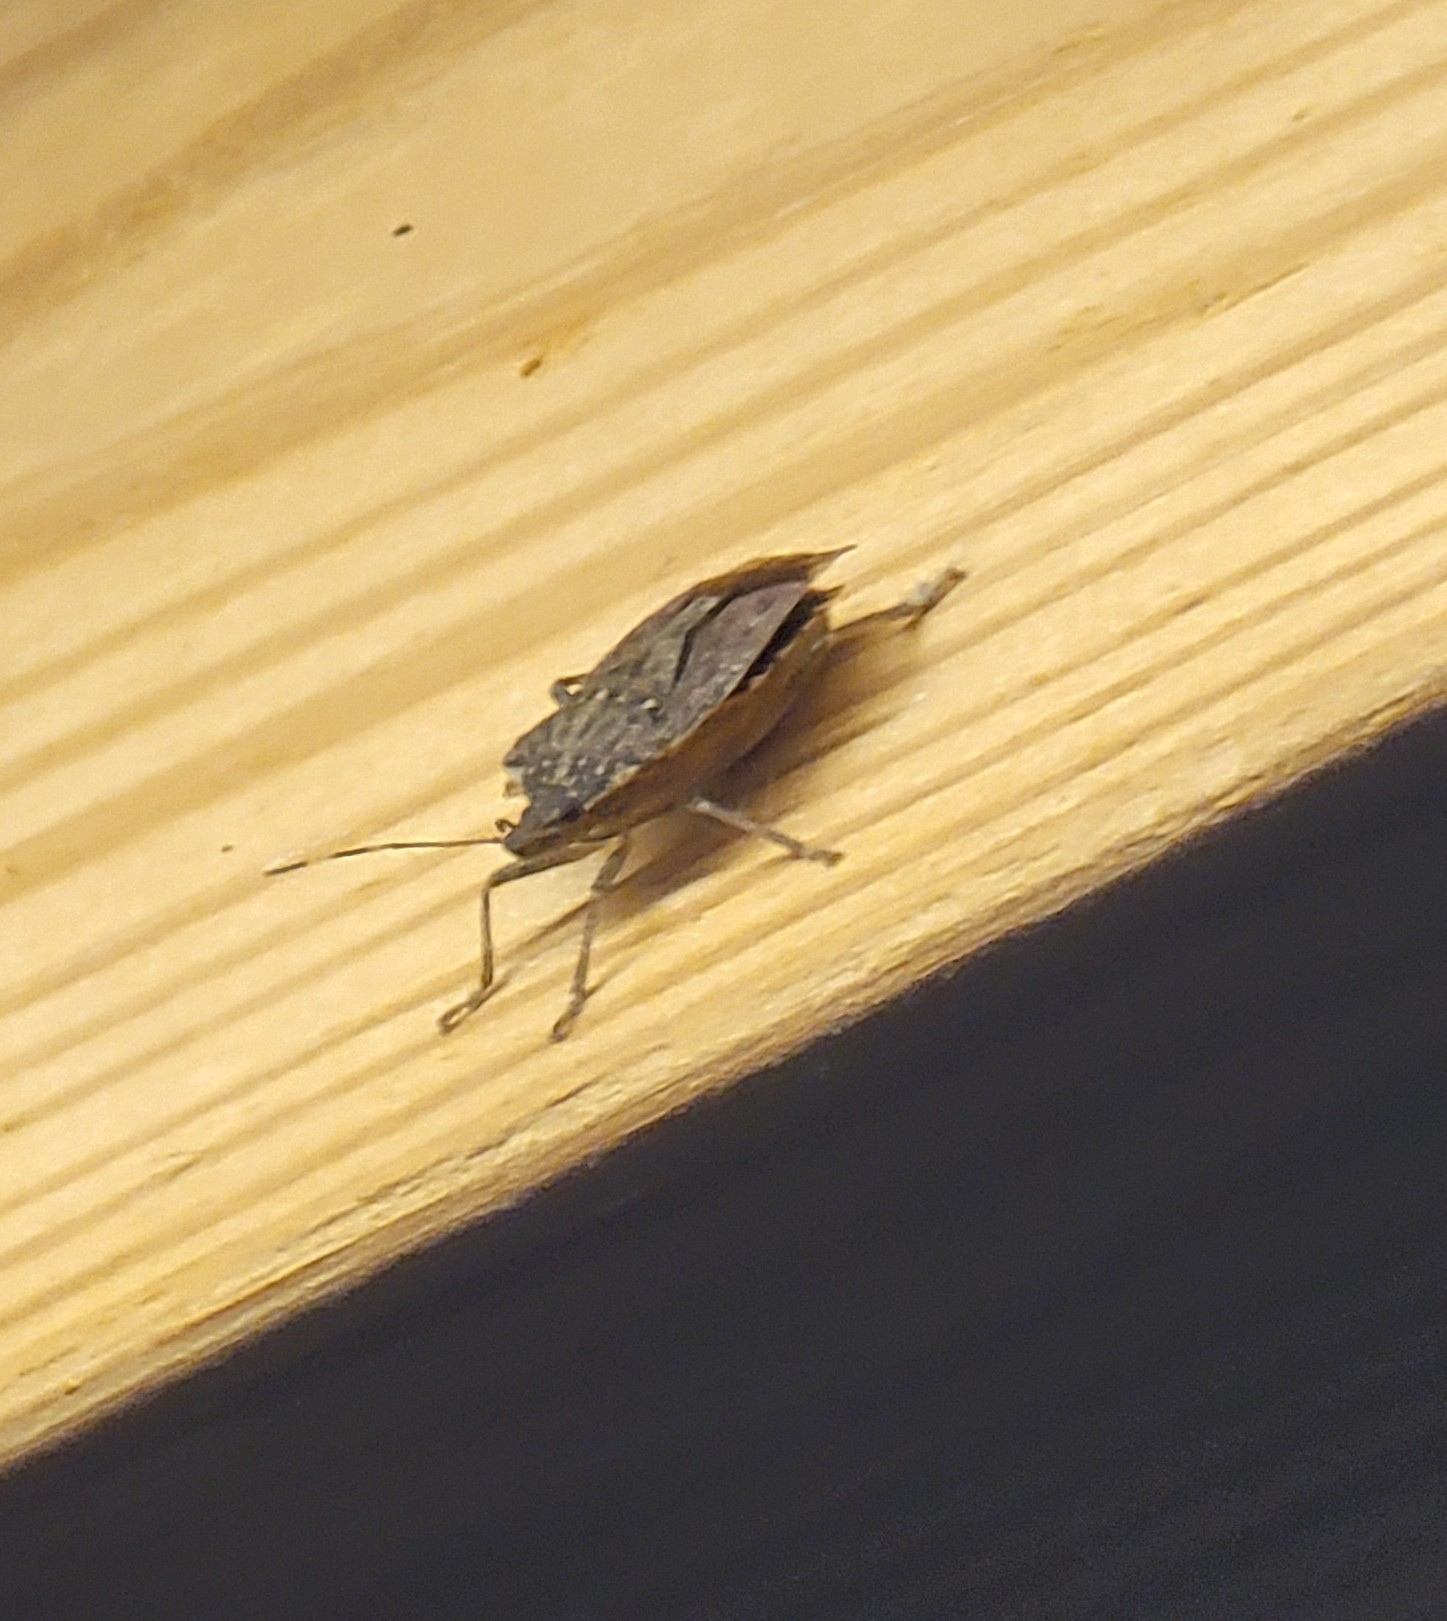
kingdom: Animalia
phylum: Arthropoda
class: Insecta
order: Hemiptera
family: Pentatomidae
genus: Halyomorpha
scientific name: Halyomorpha halys
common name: Brown marmorated stink bug
